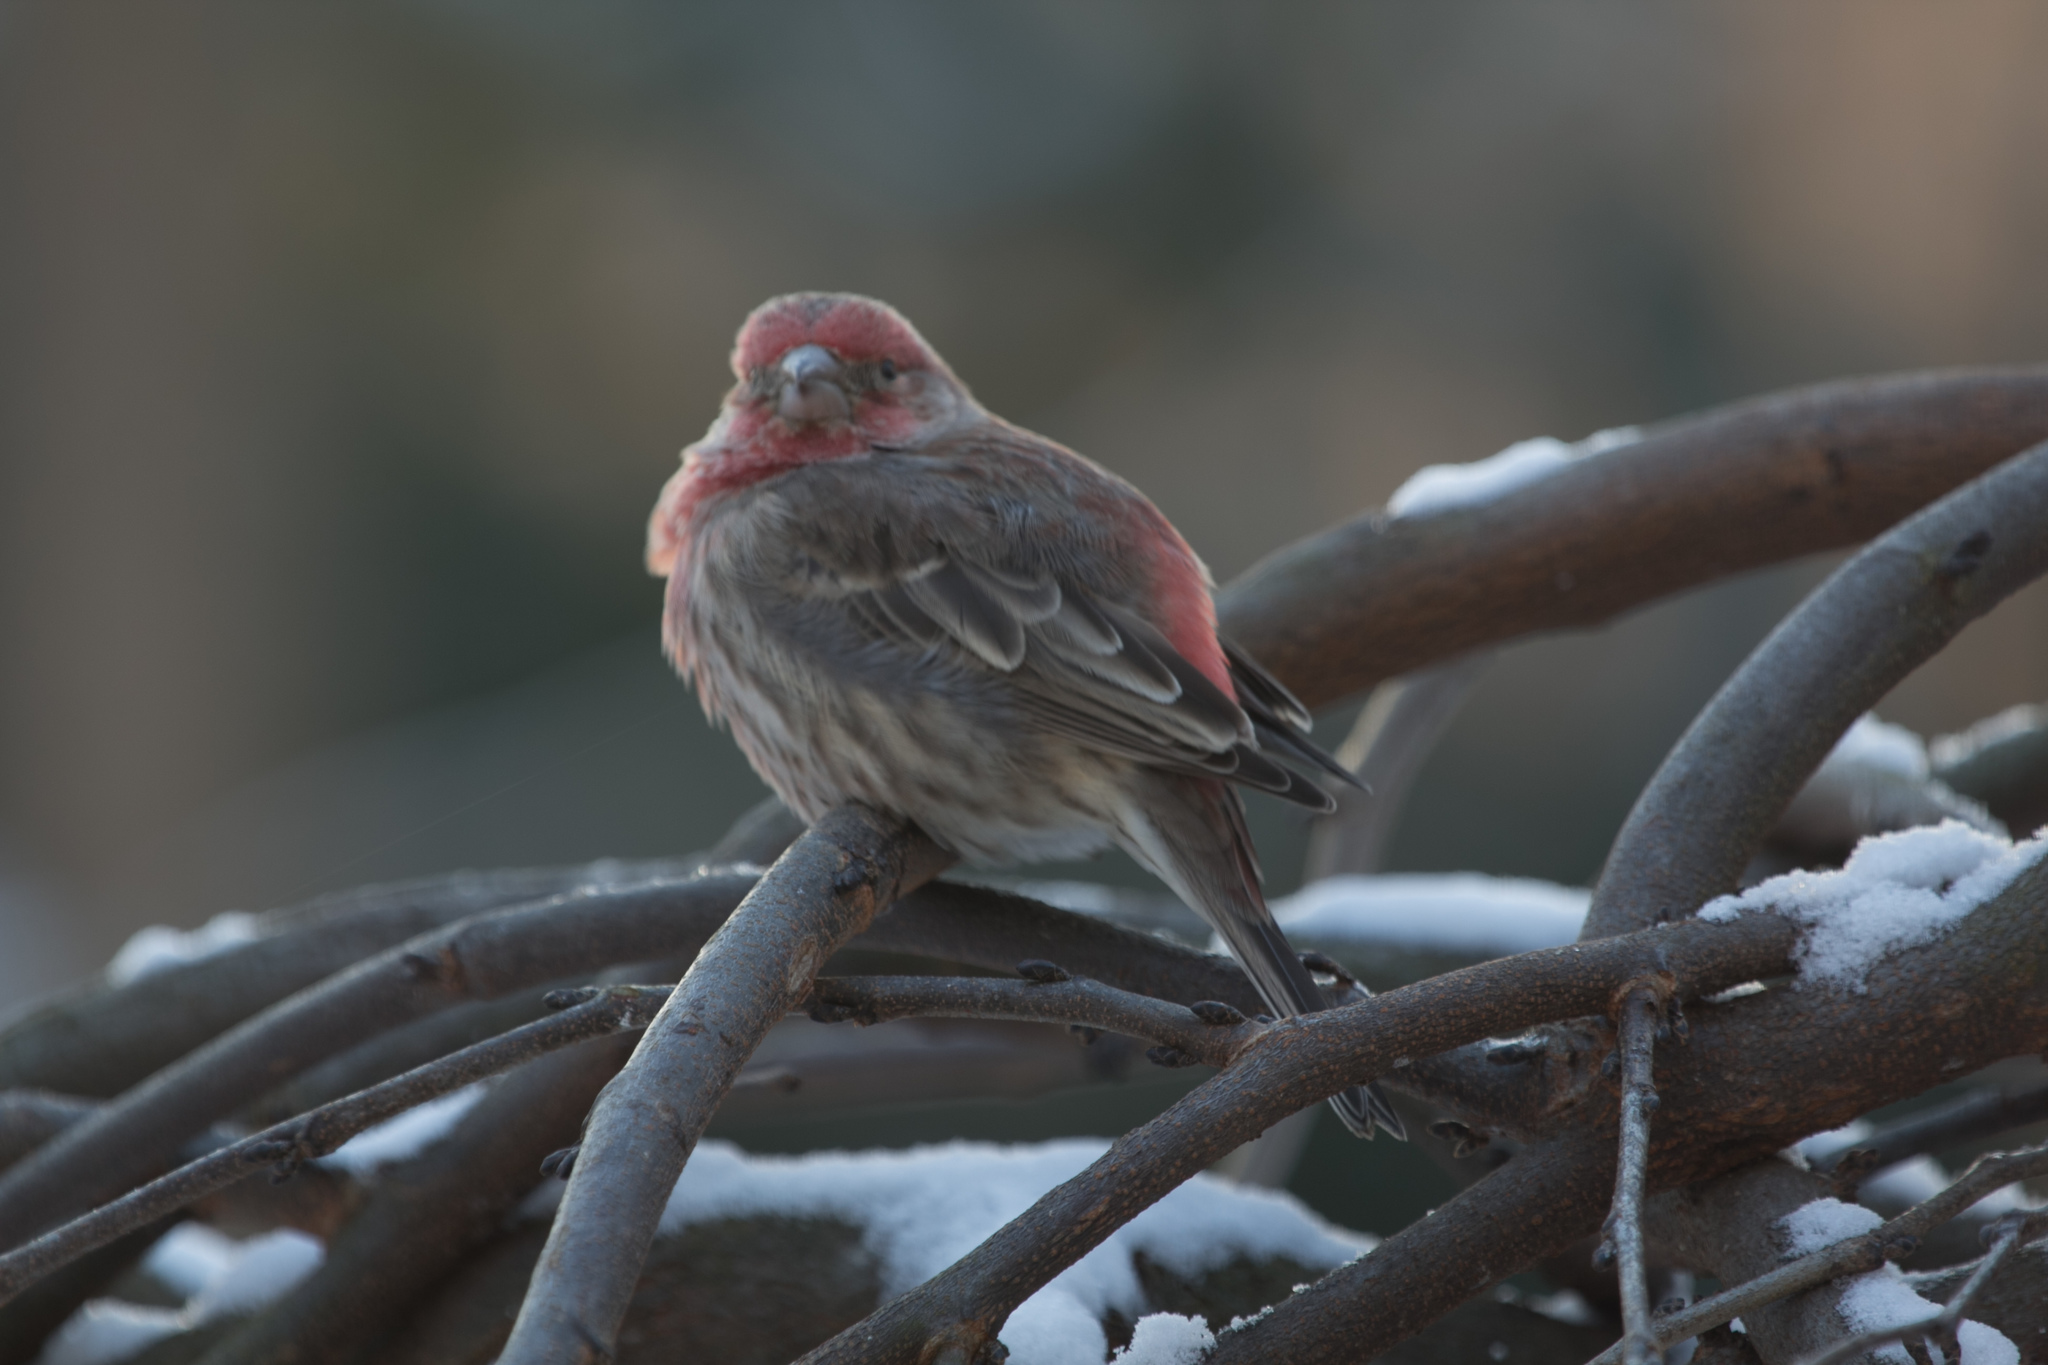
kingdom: Animalia
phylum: Chordata
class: Aves
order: Passeriformes
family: Fringillidae
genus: Haemorhous
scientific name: Haemorhous mexicanus
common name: House finch
